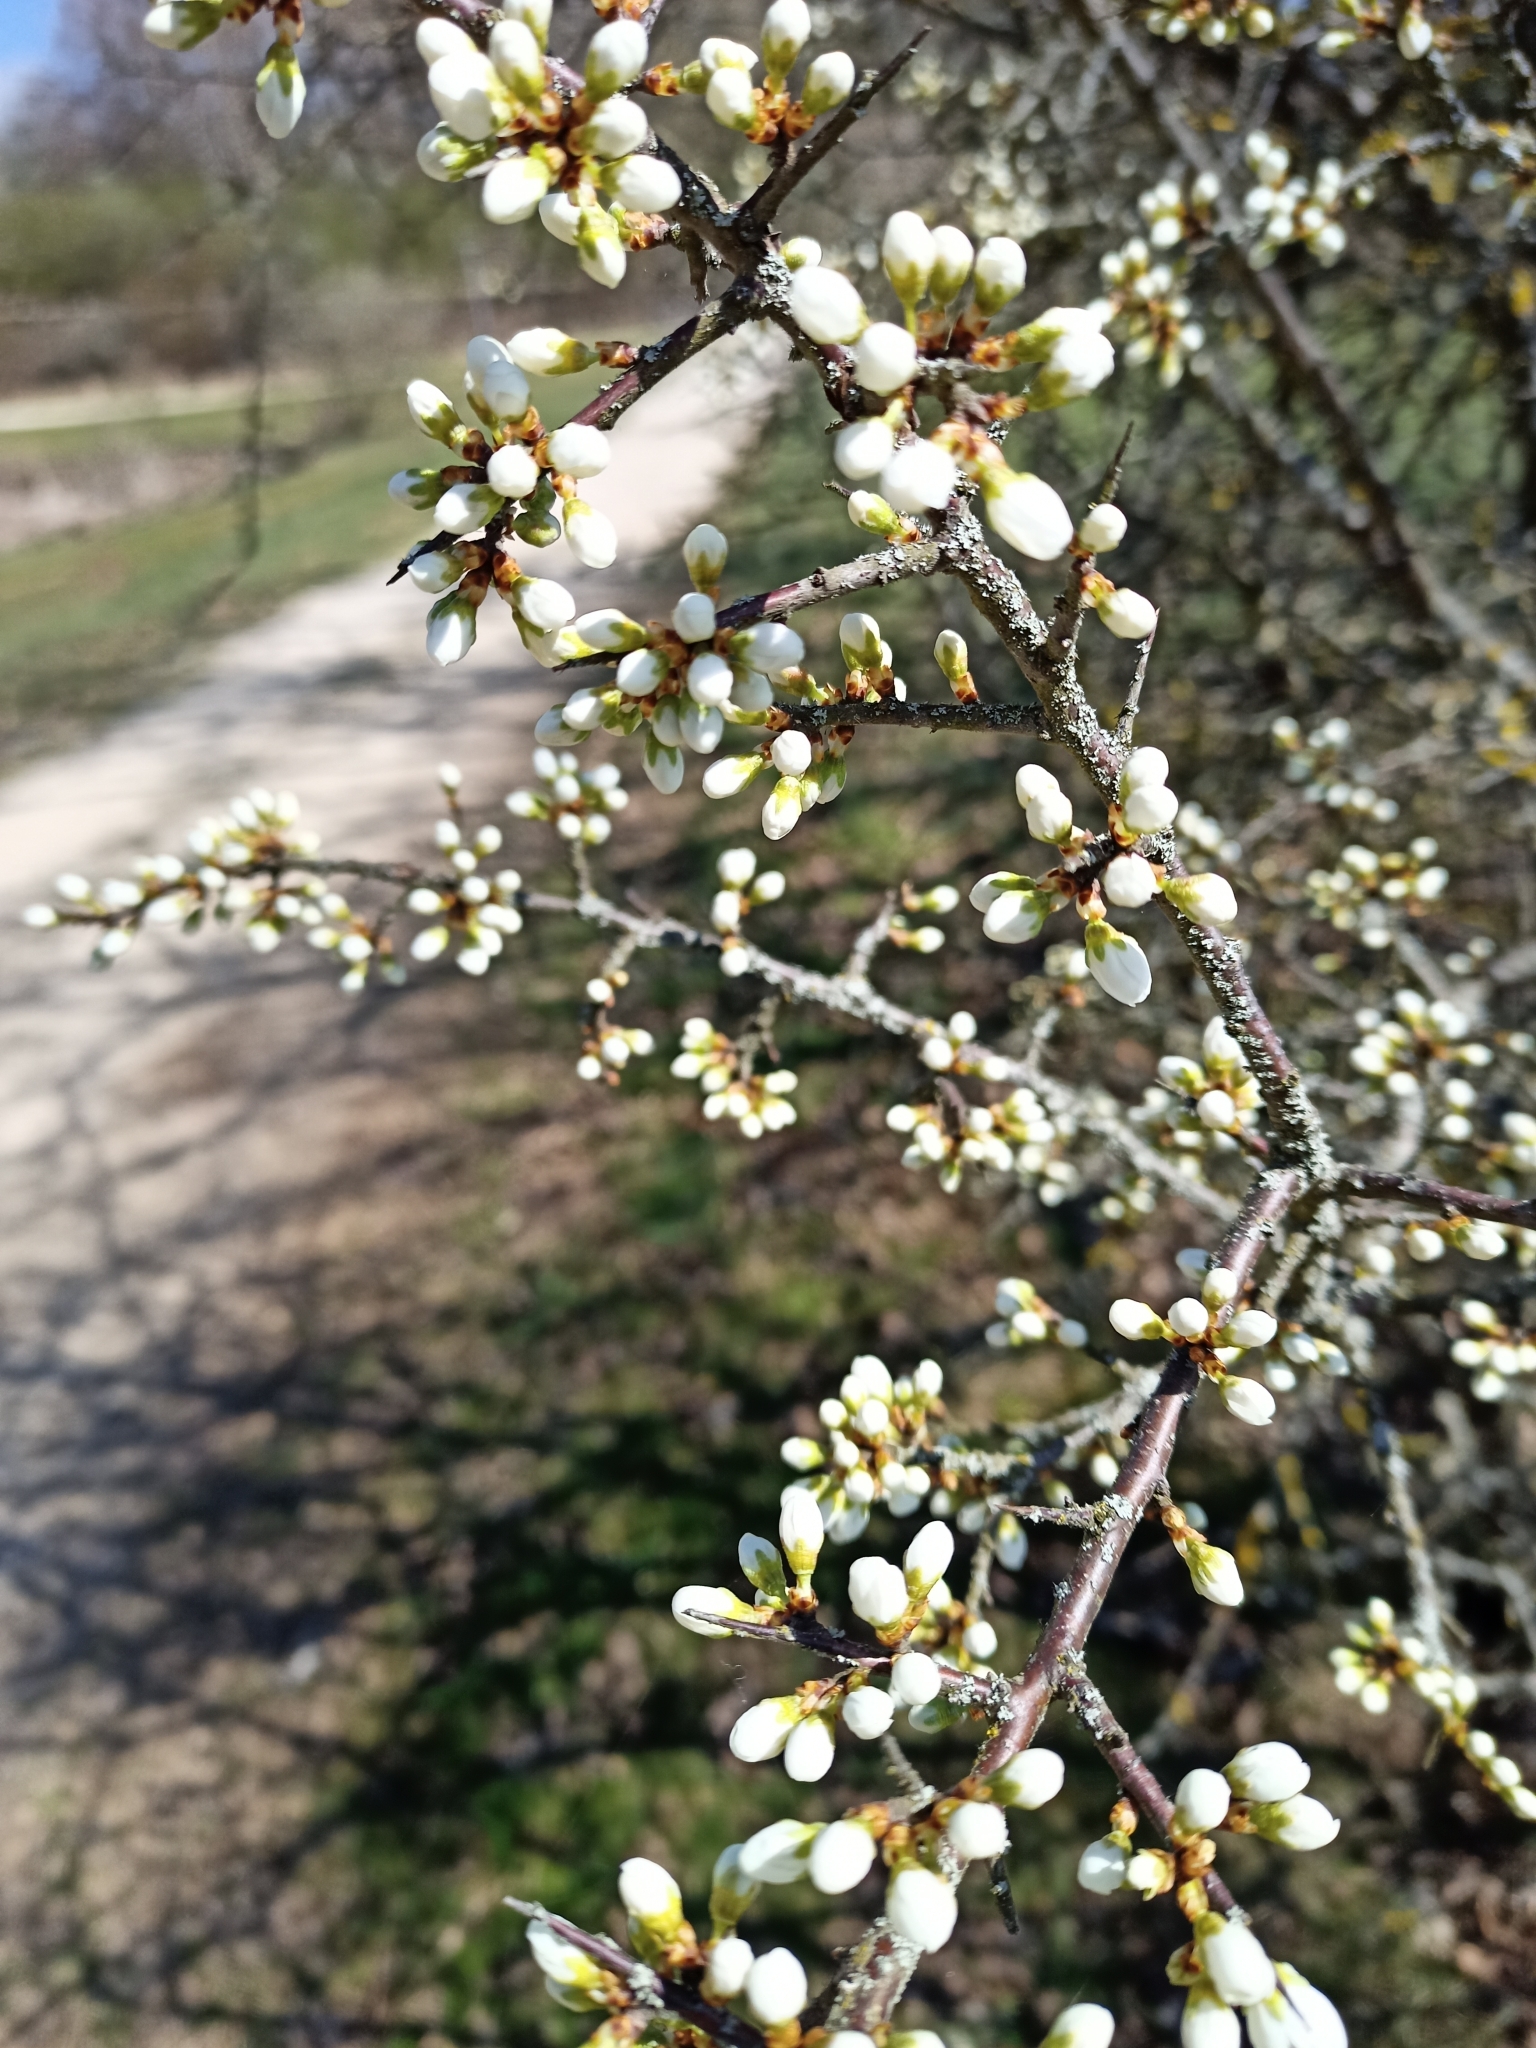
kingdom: Plantae
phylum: Tracheophyta
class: Magnoliopsida
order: Rosales
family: Rosaceae
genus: Prunus
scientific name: Prunus spinosa
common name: Blackthorn
